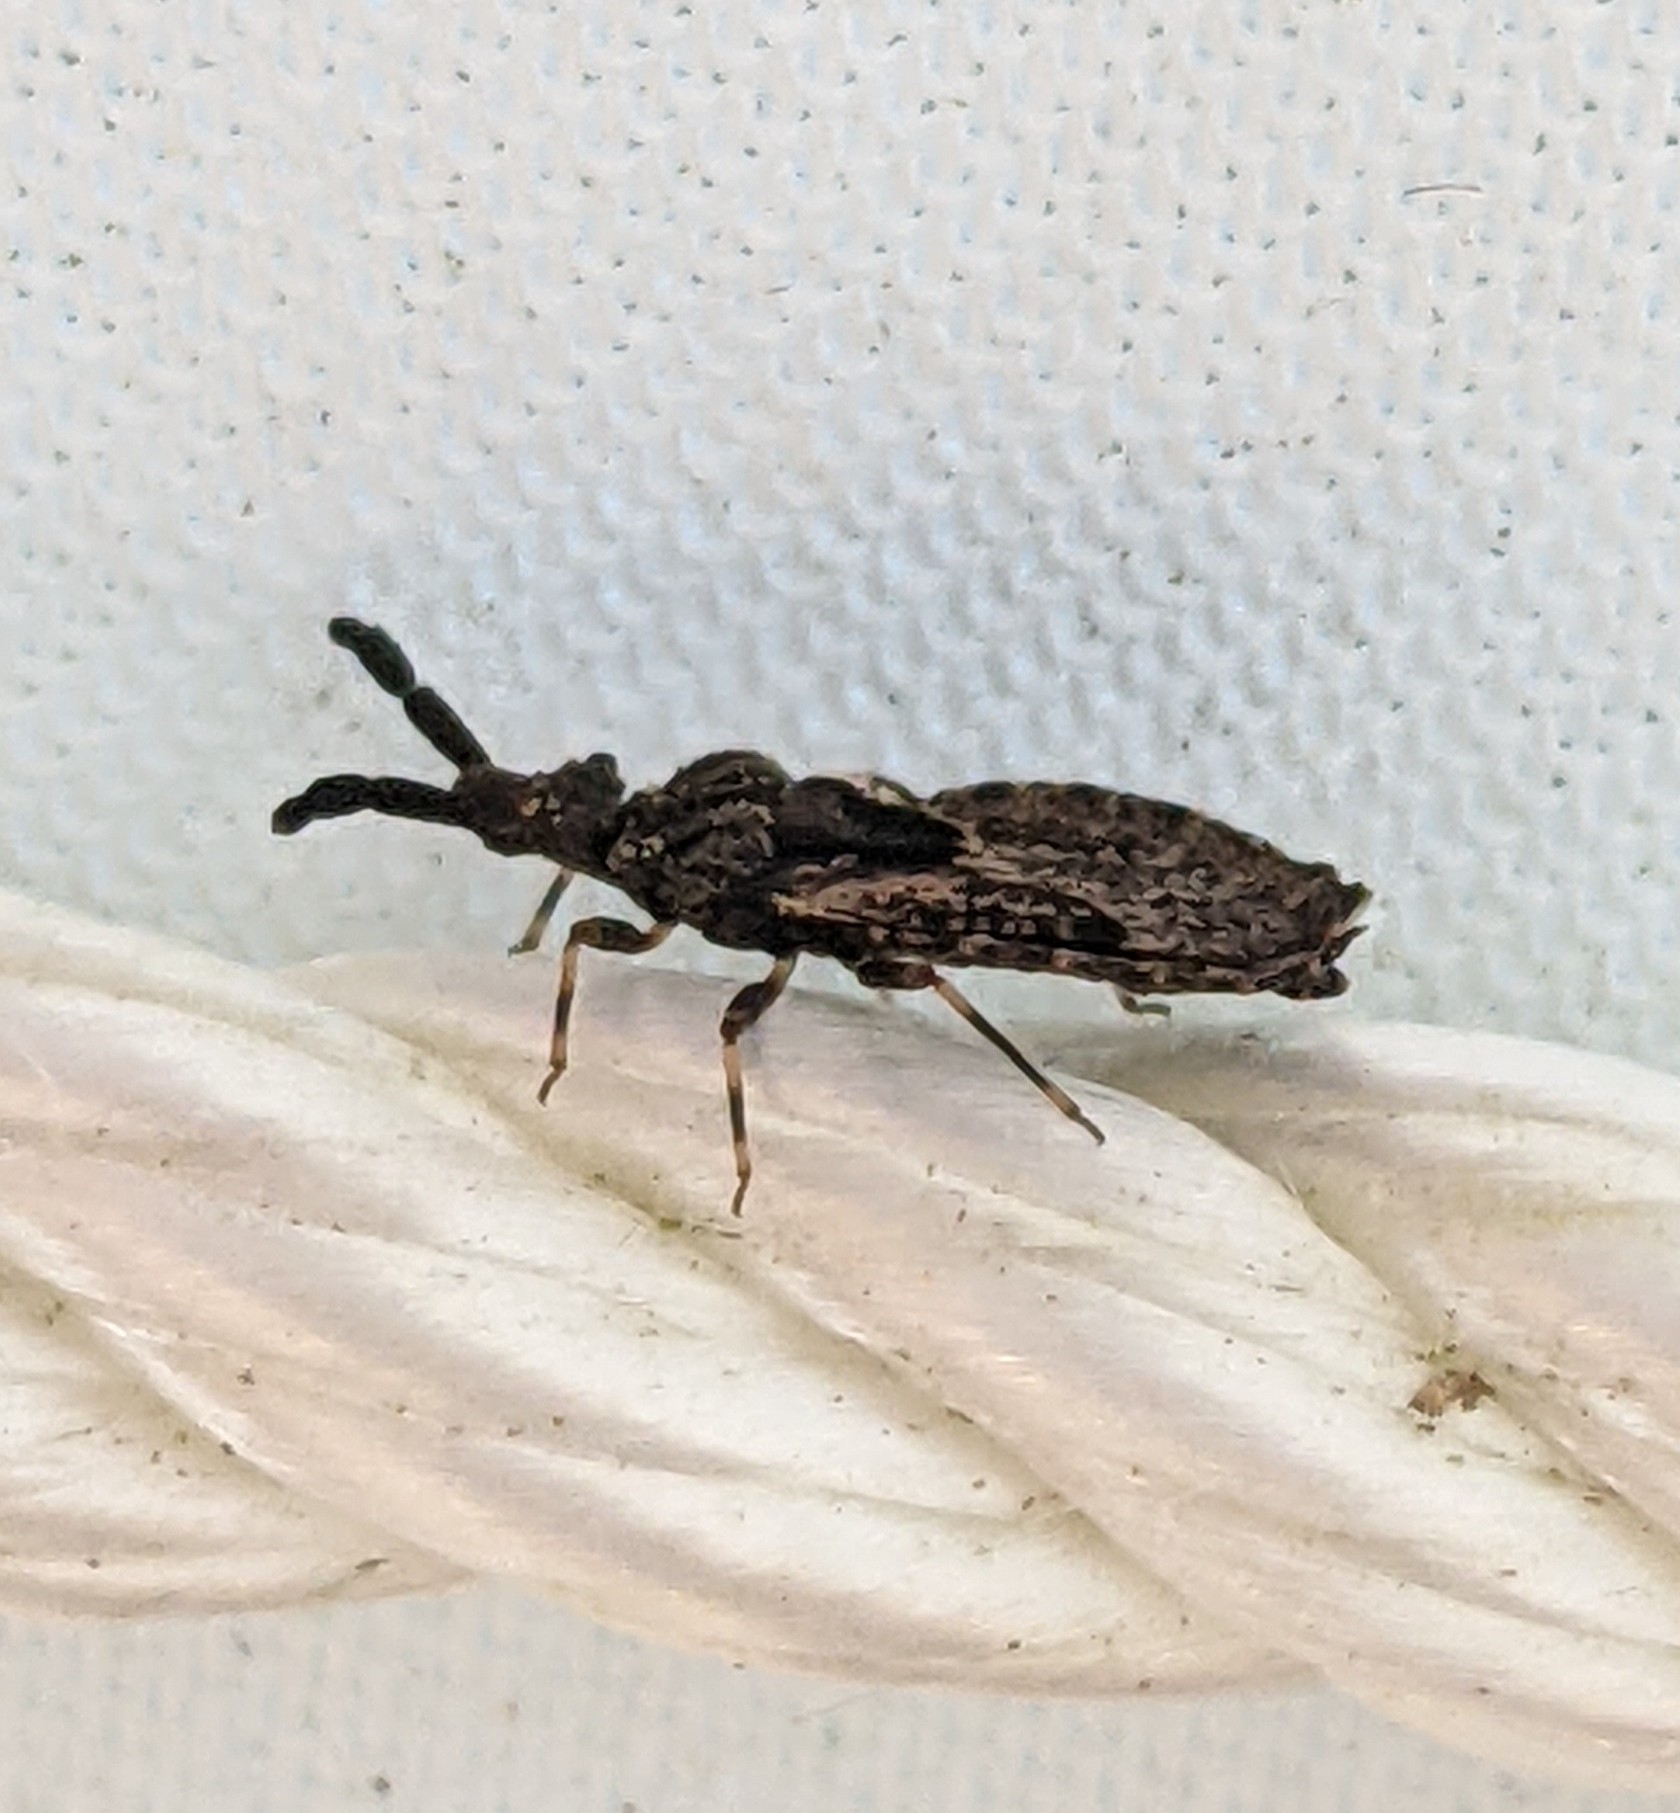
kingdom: Animalia
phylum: Arthropoda
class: Insecta
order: Hemiptera
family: Aradidae
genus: Aradus
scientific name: Aradus fuscomaculatus
